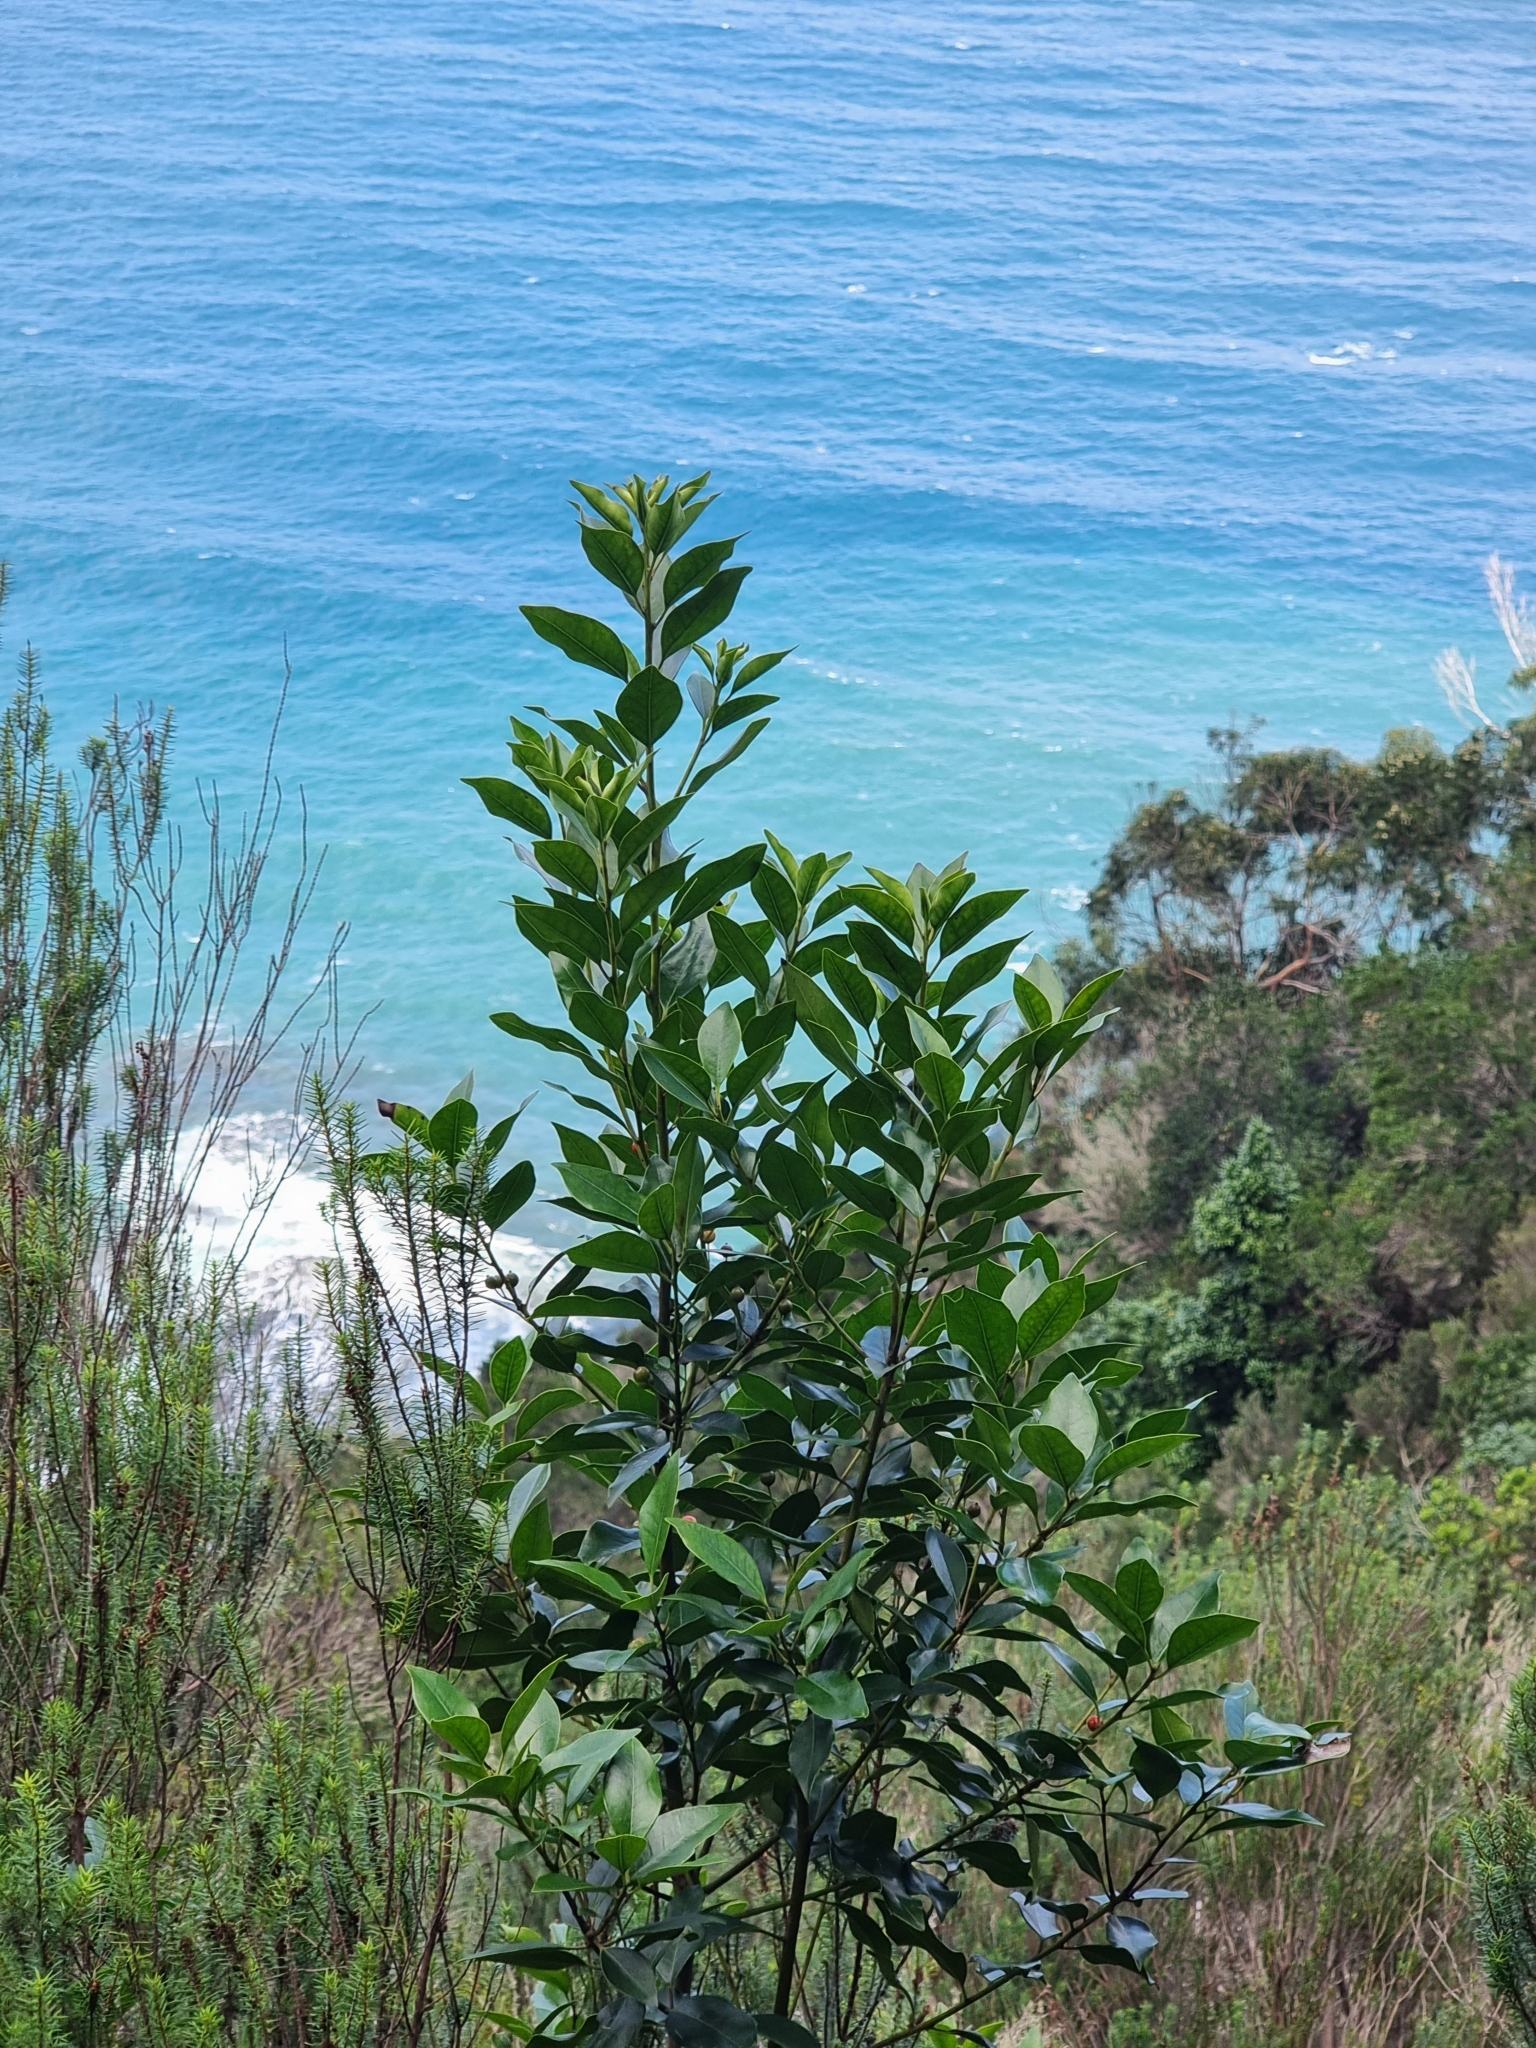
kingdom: Plantae
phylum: Tracheophyta
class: Magnoliopsida
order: Aquifoliales
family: Aquifoliaceae
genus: Ilex
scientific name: Ilex canariensis
